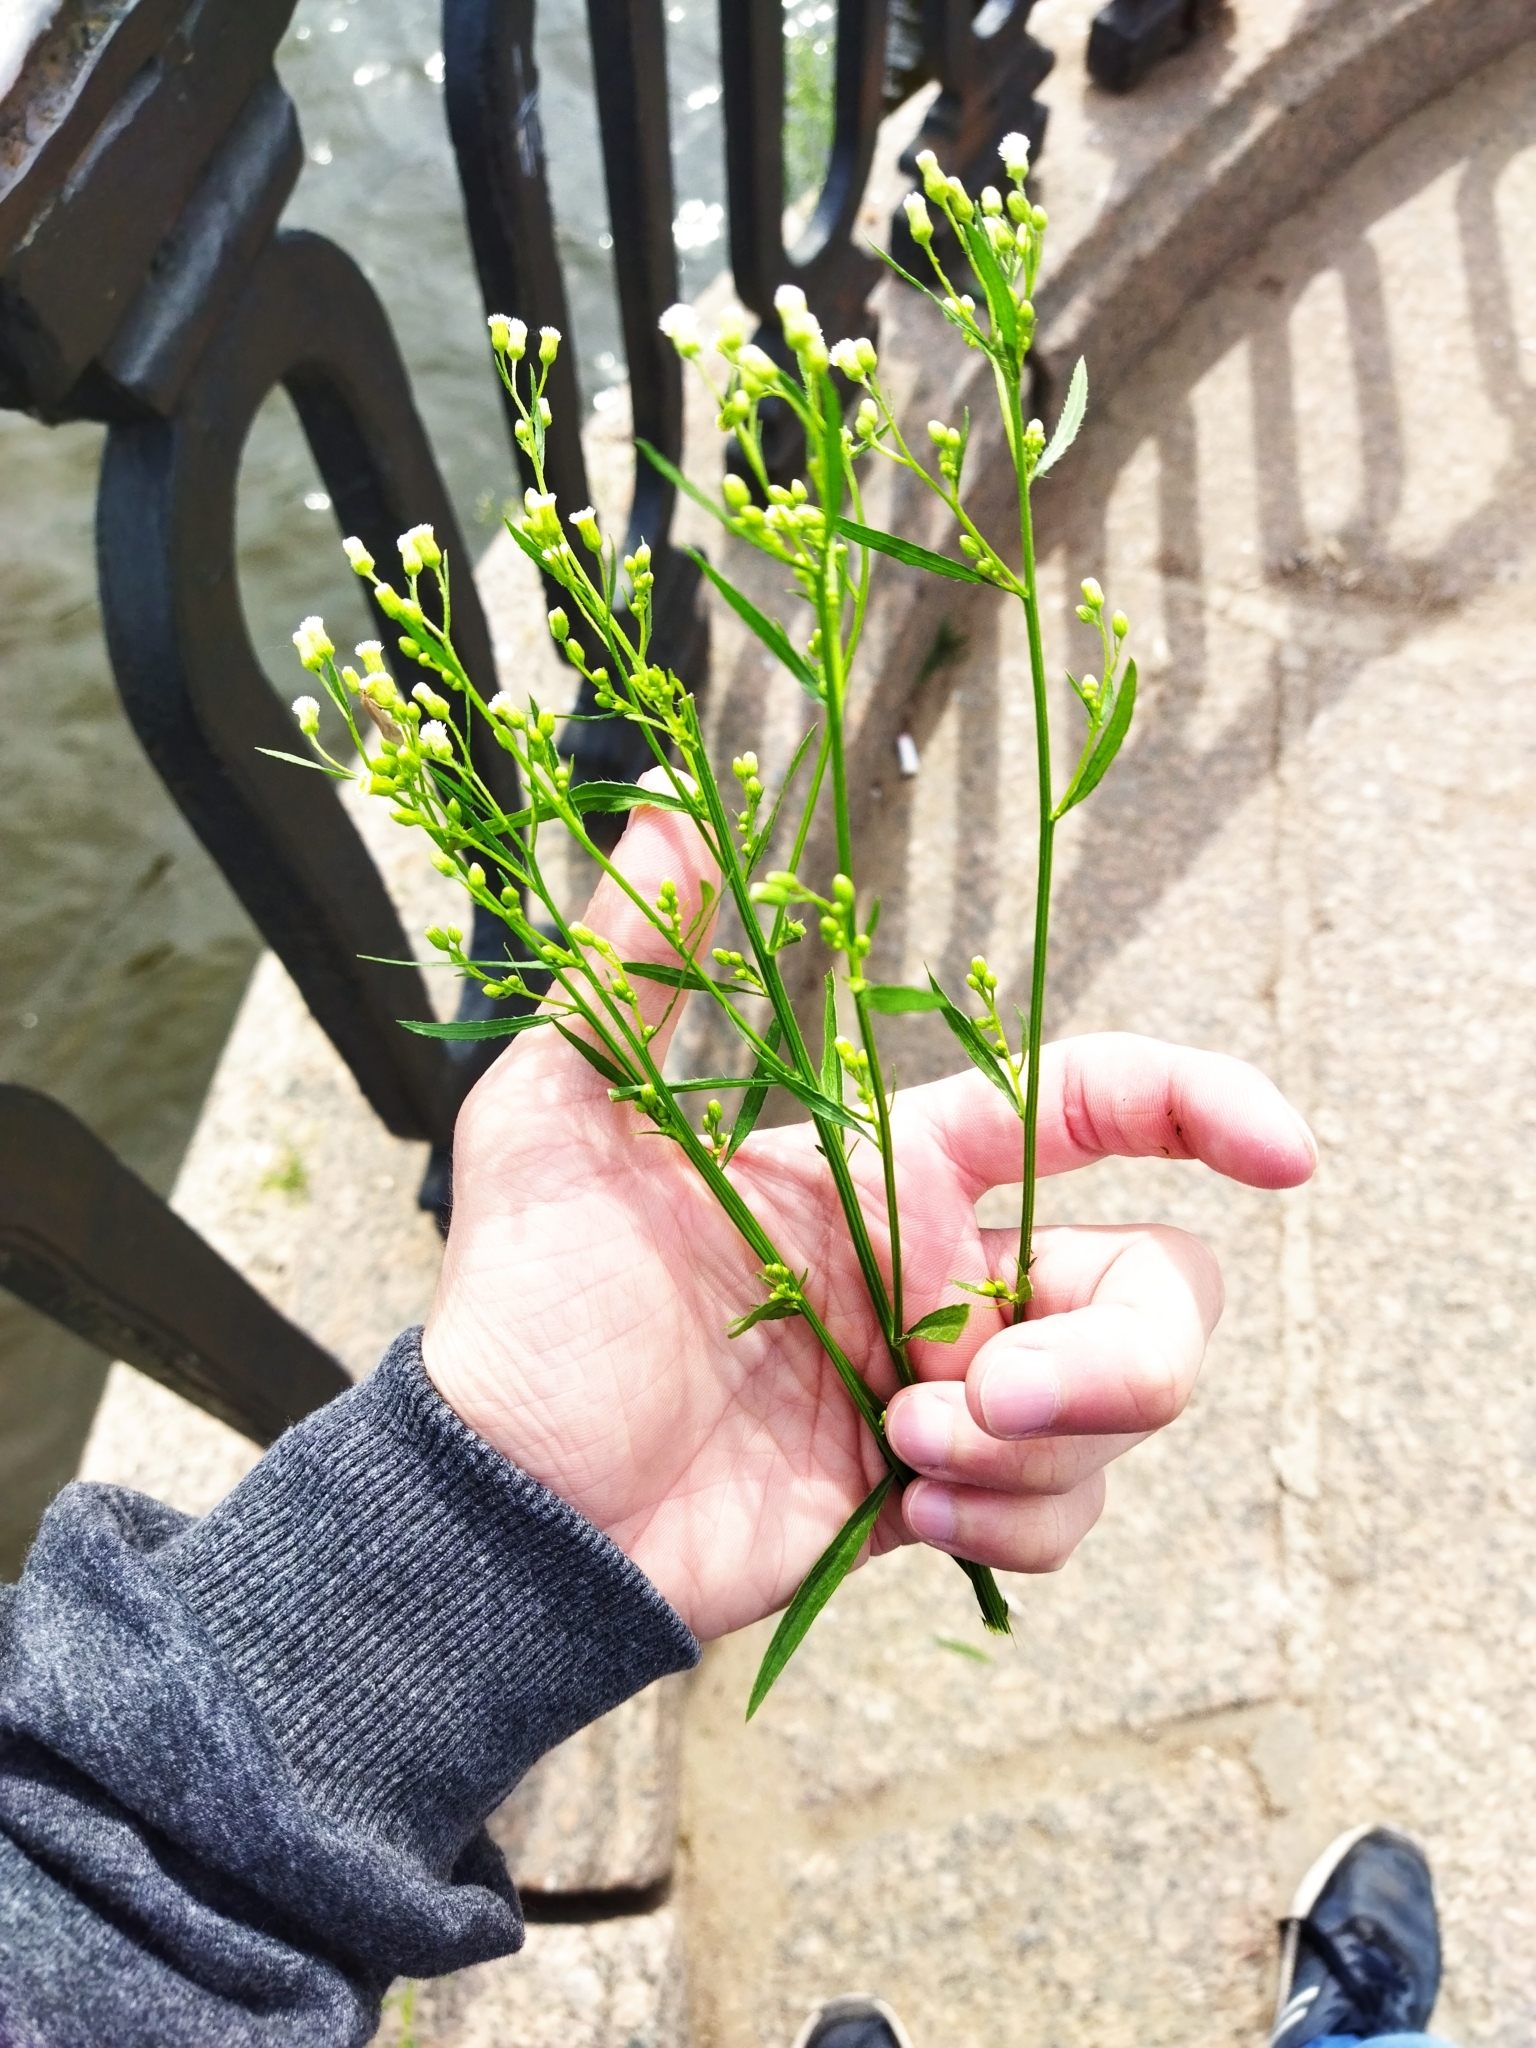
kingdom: Plantae
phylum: Tracheophyta
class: Magnoliopsida
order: Asterales
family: Asteraceae
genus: Erigeron
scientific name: Erigeron canadensis
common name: Canadian fleabane
